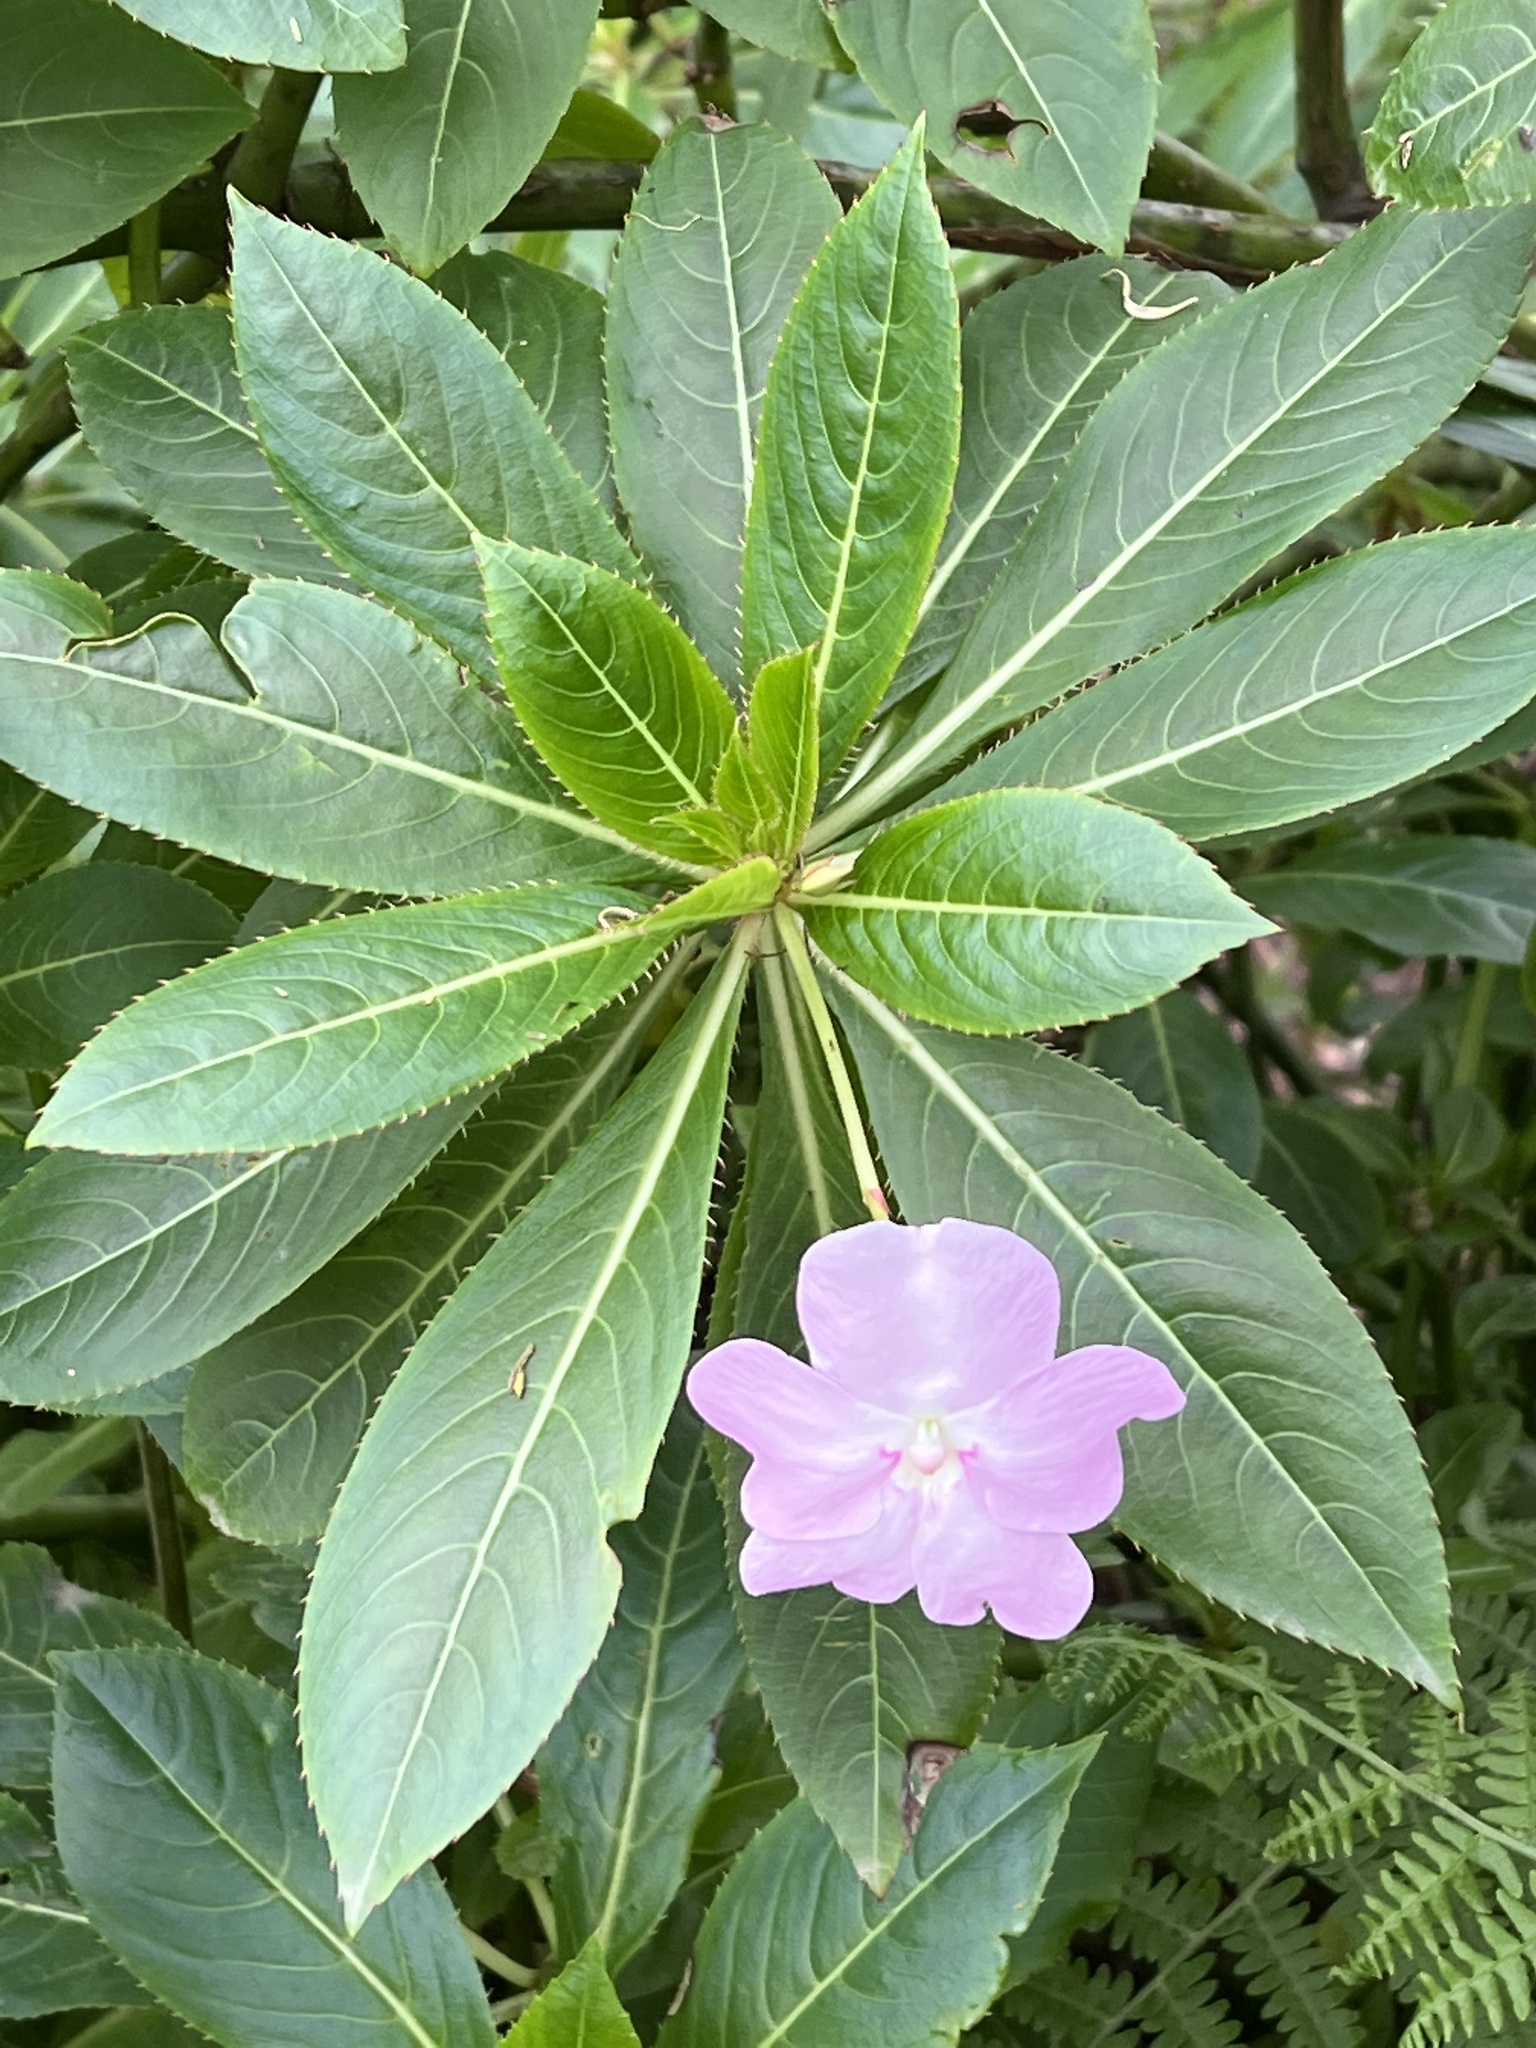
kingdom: Plantae
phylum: Tracheophyta
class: Magnoliopsida
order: Ericales
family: Balsaminaceae
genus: Impatiens
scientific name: Impatiens sodenii
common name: Oliver's touch-me-not
